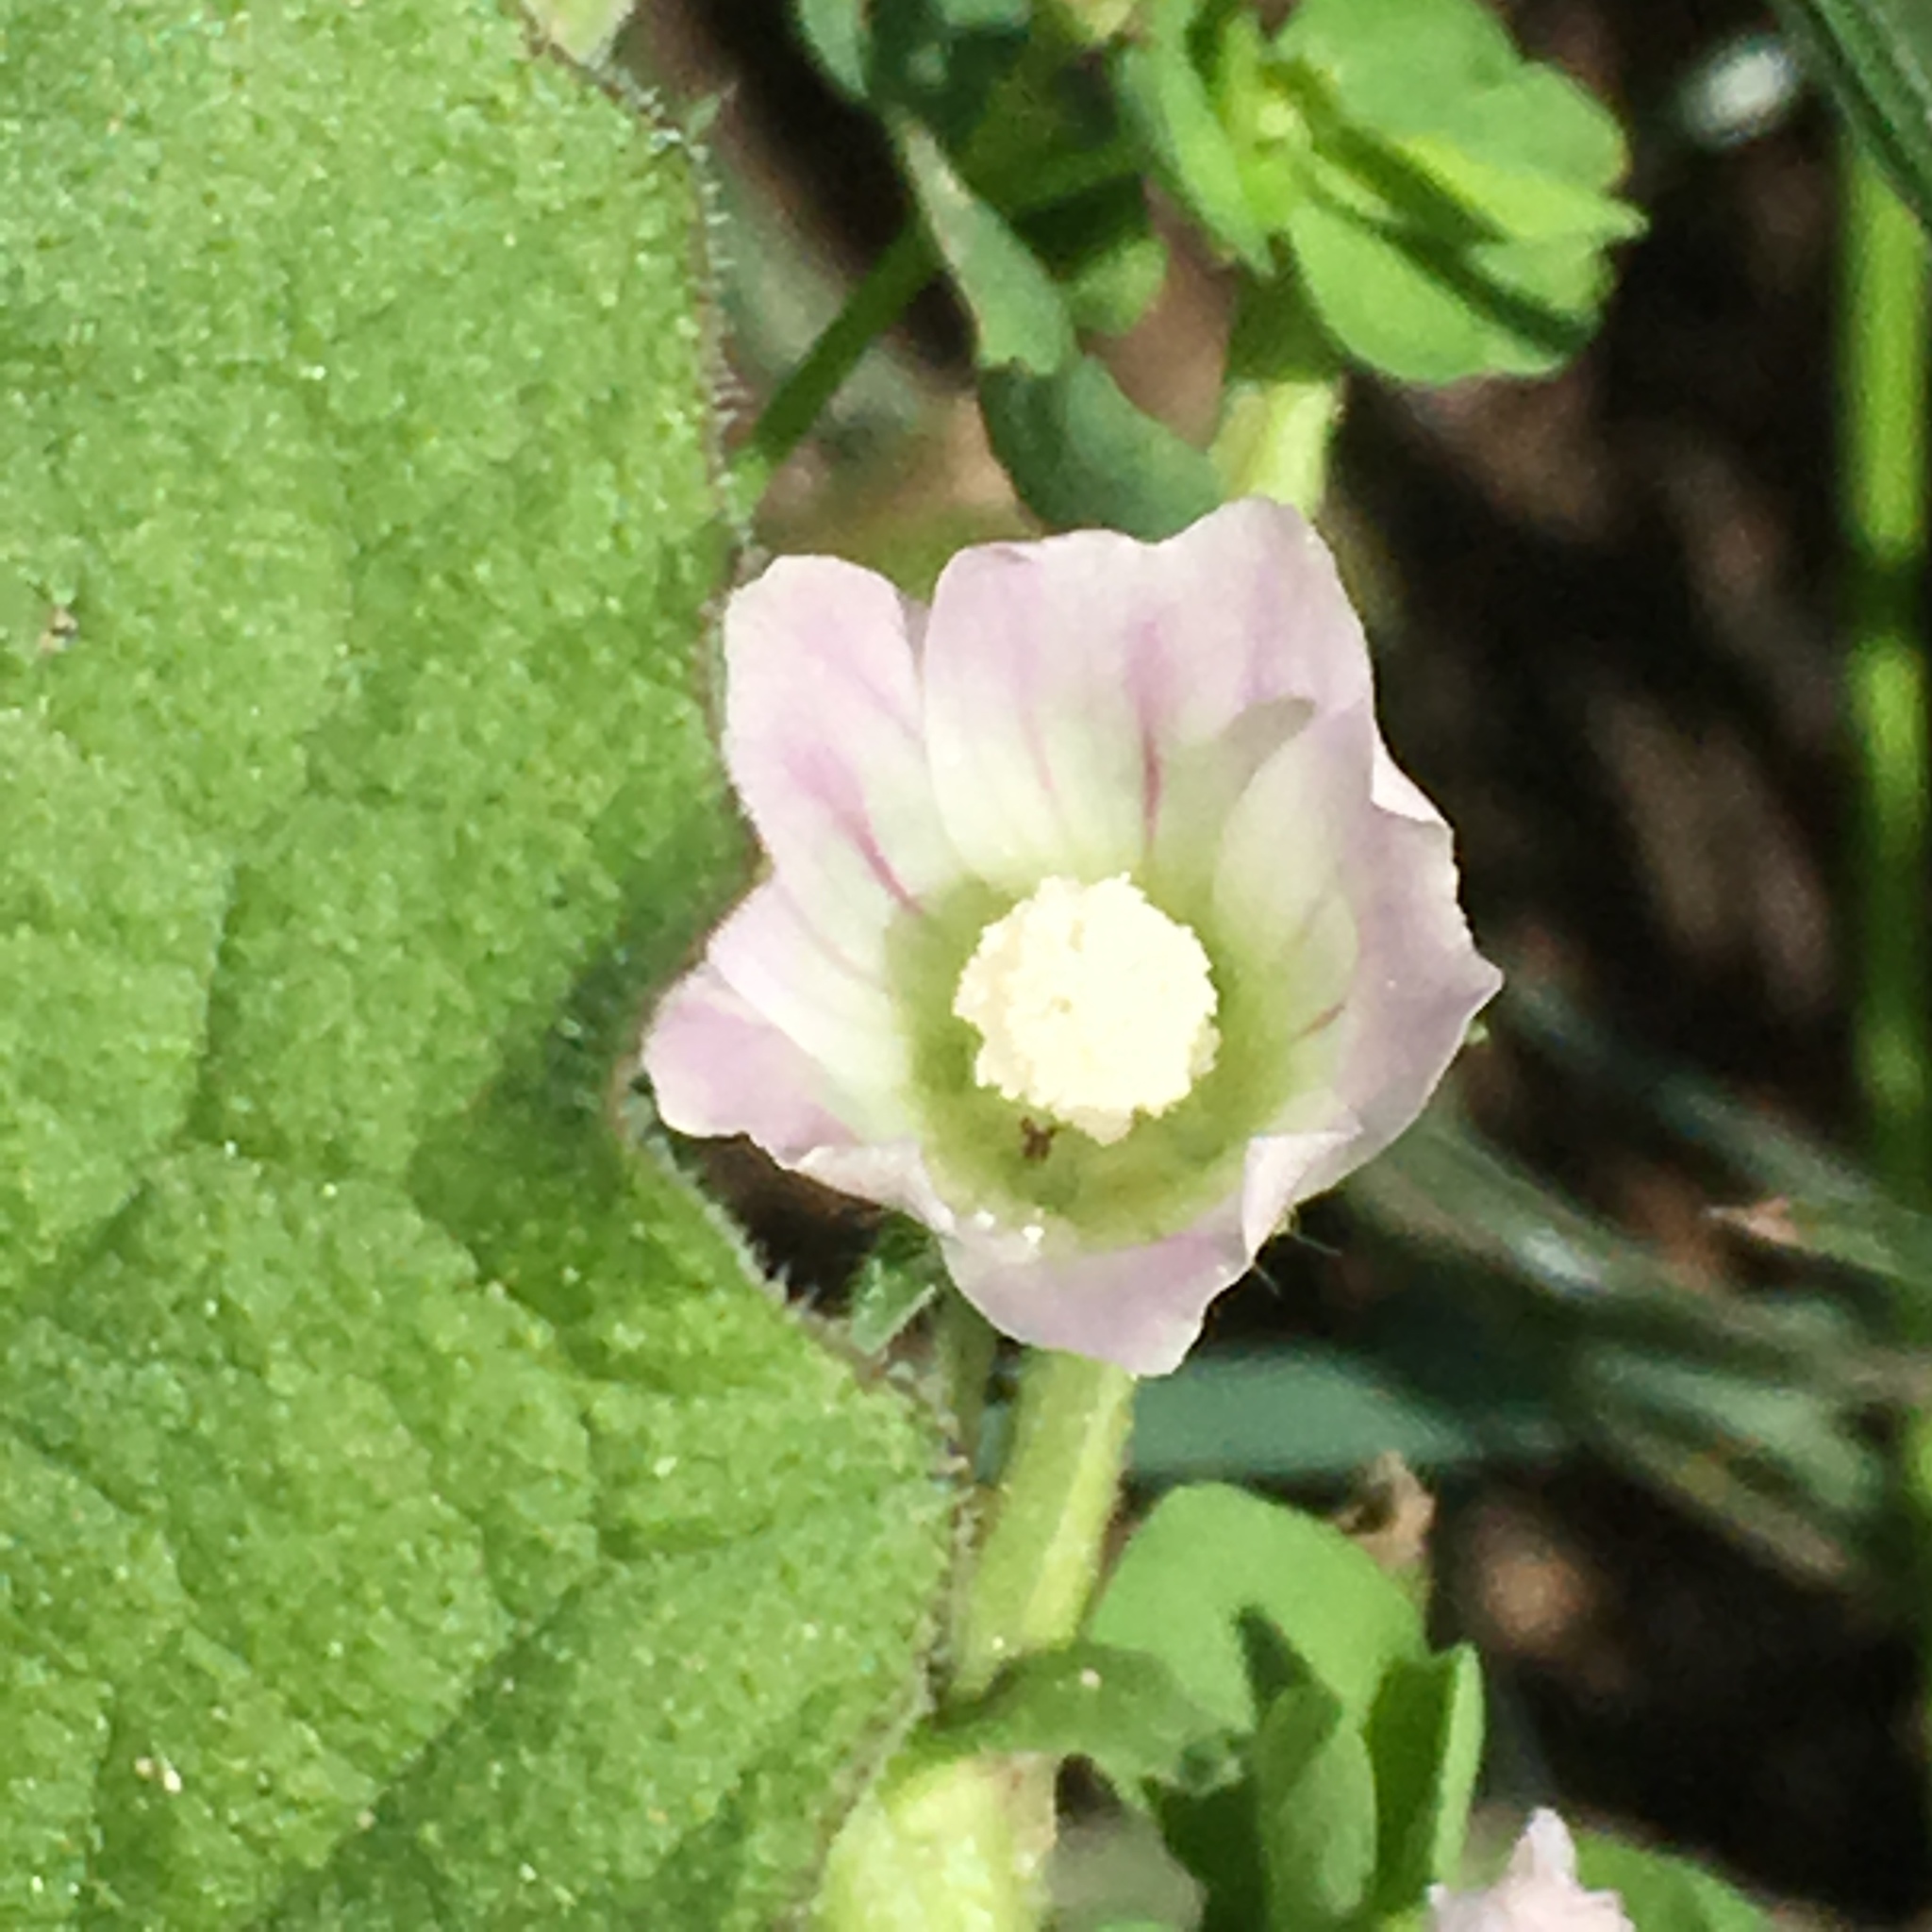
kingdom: Plantae
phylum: Tracheophyta
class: Magnoliopsida
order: Malvales
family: Malvaceae
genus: Malva
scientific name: Malva neglecta
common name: Common mallow
